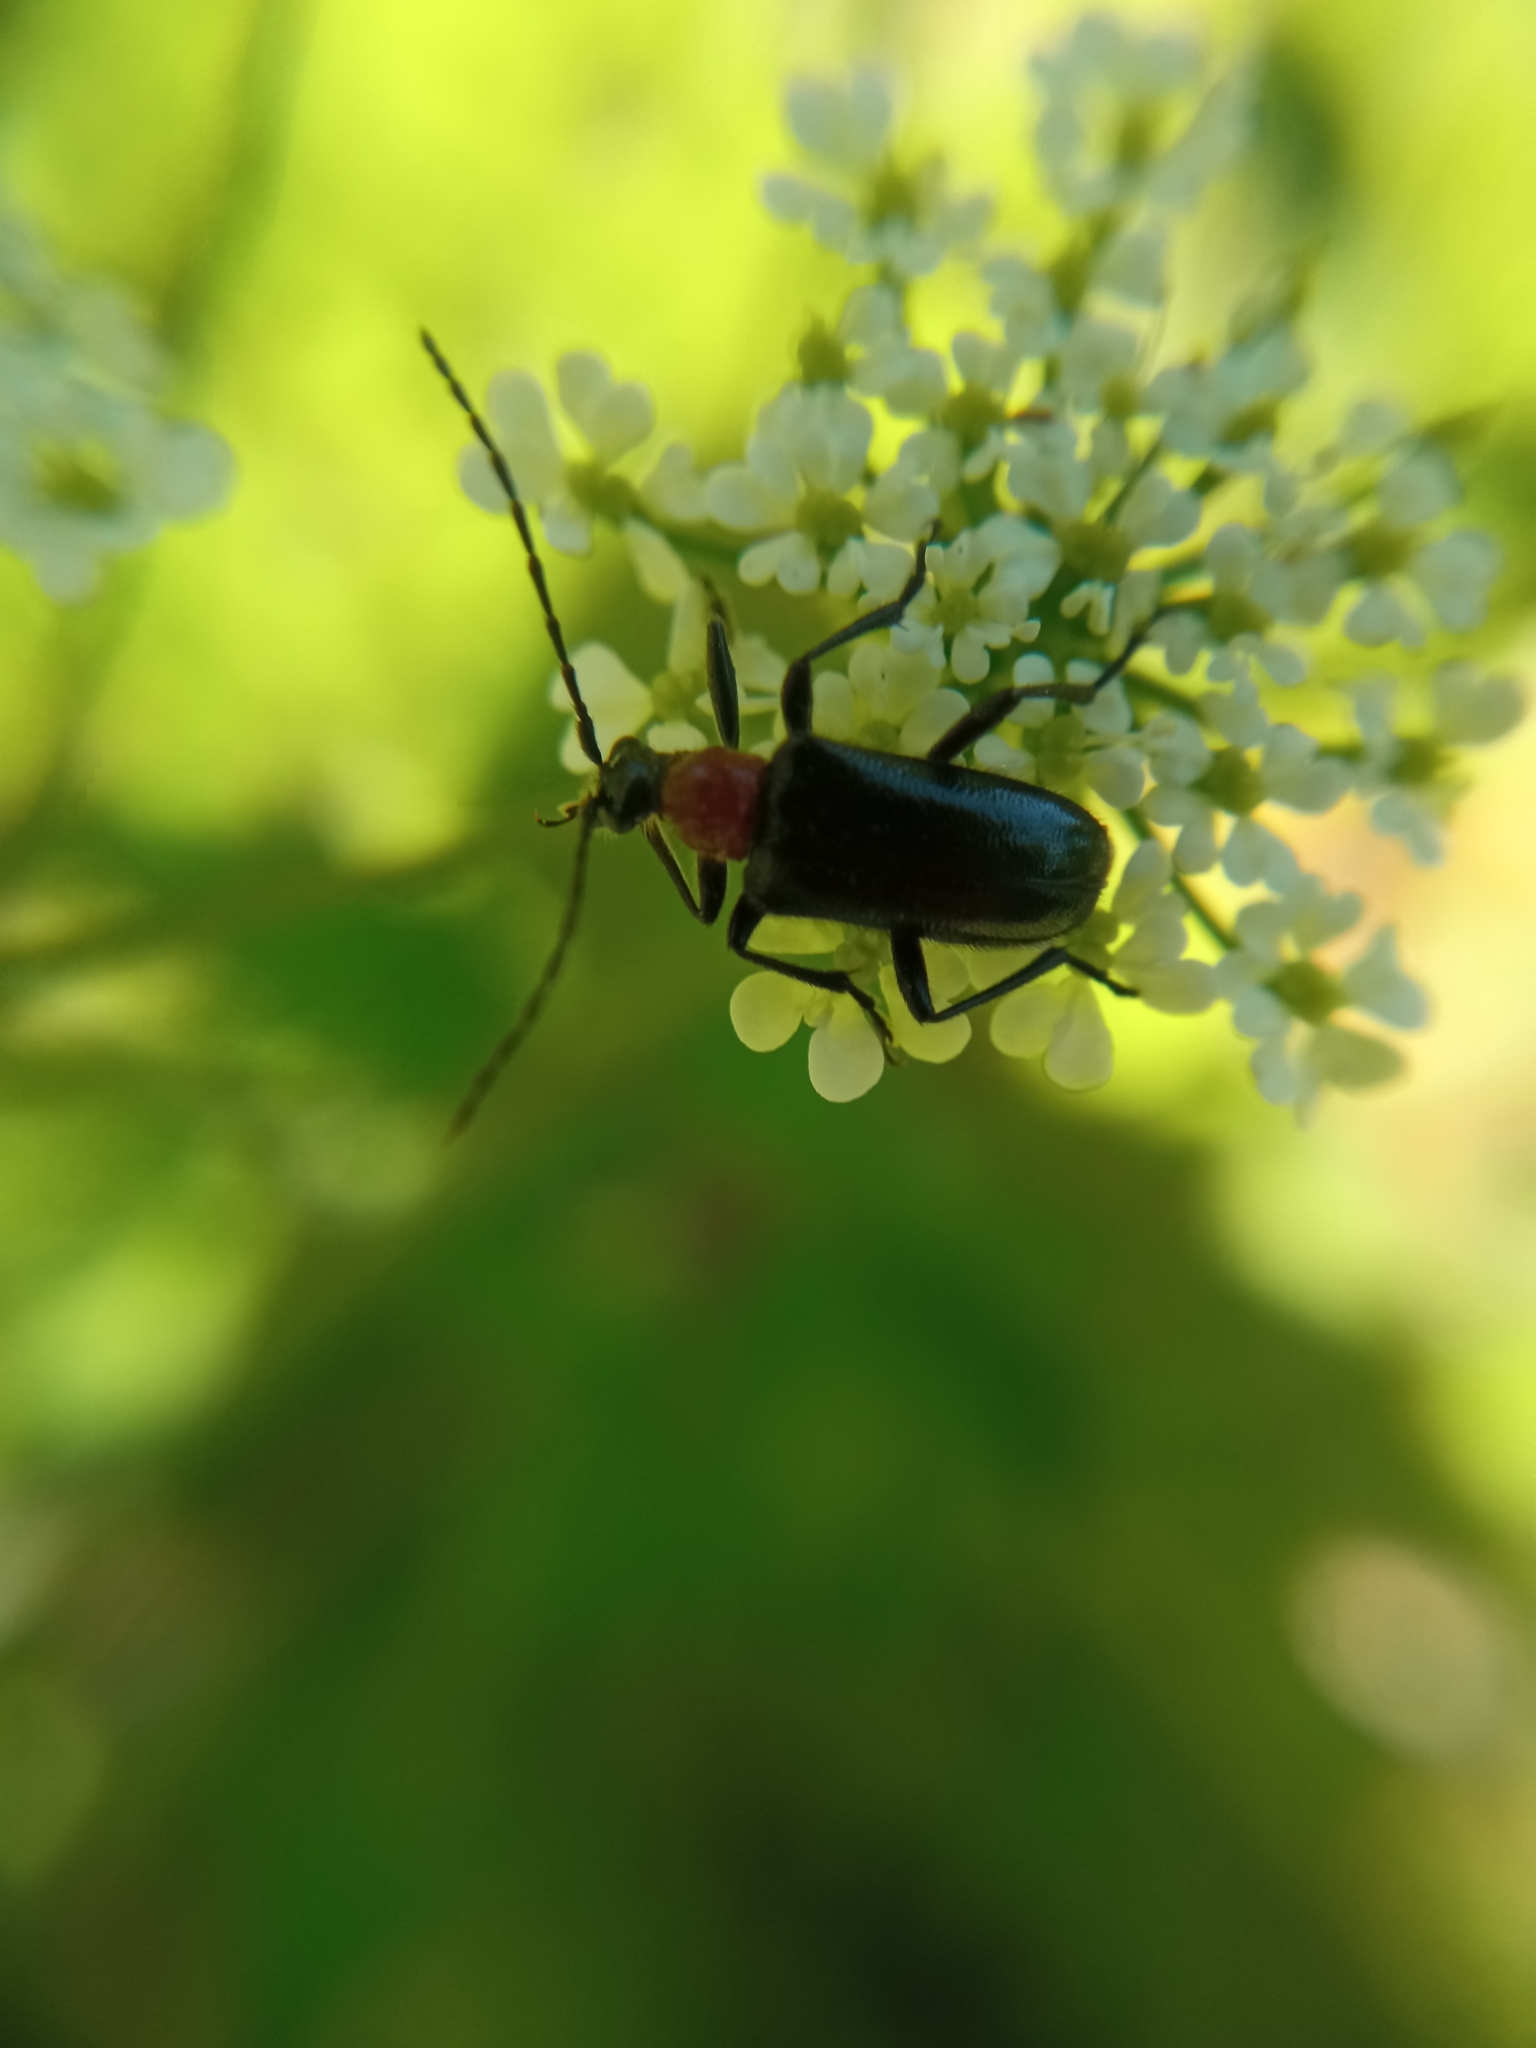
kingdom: Animalia
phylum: Arthropoda
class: Insecta
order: Coleoptera
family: Cerambycidae
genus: Dinoptera
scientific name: Dinoptera collaris
